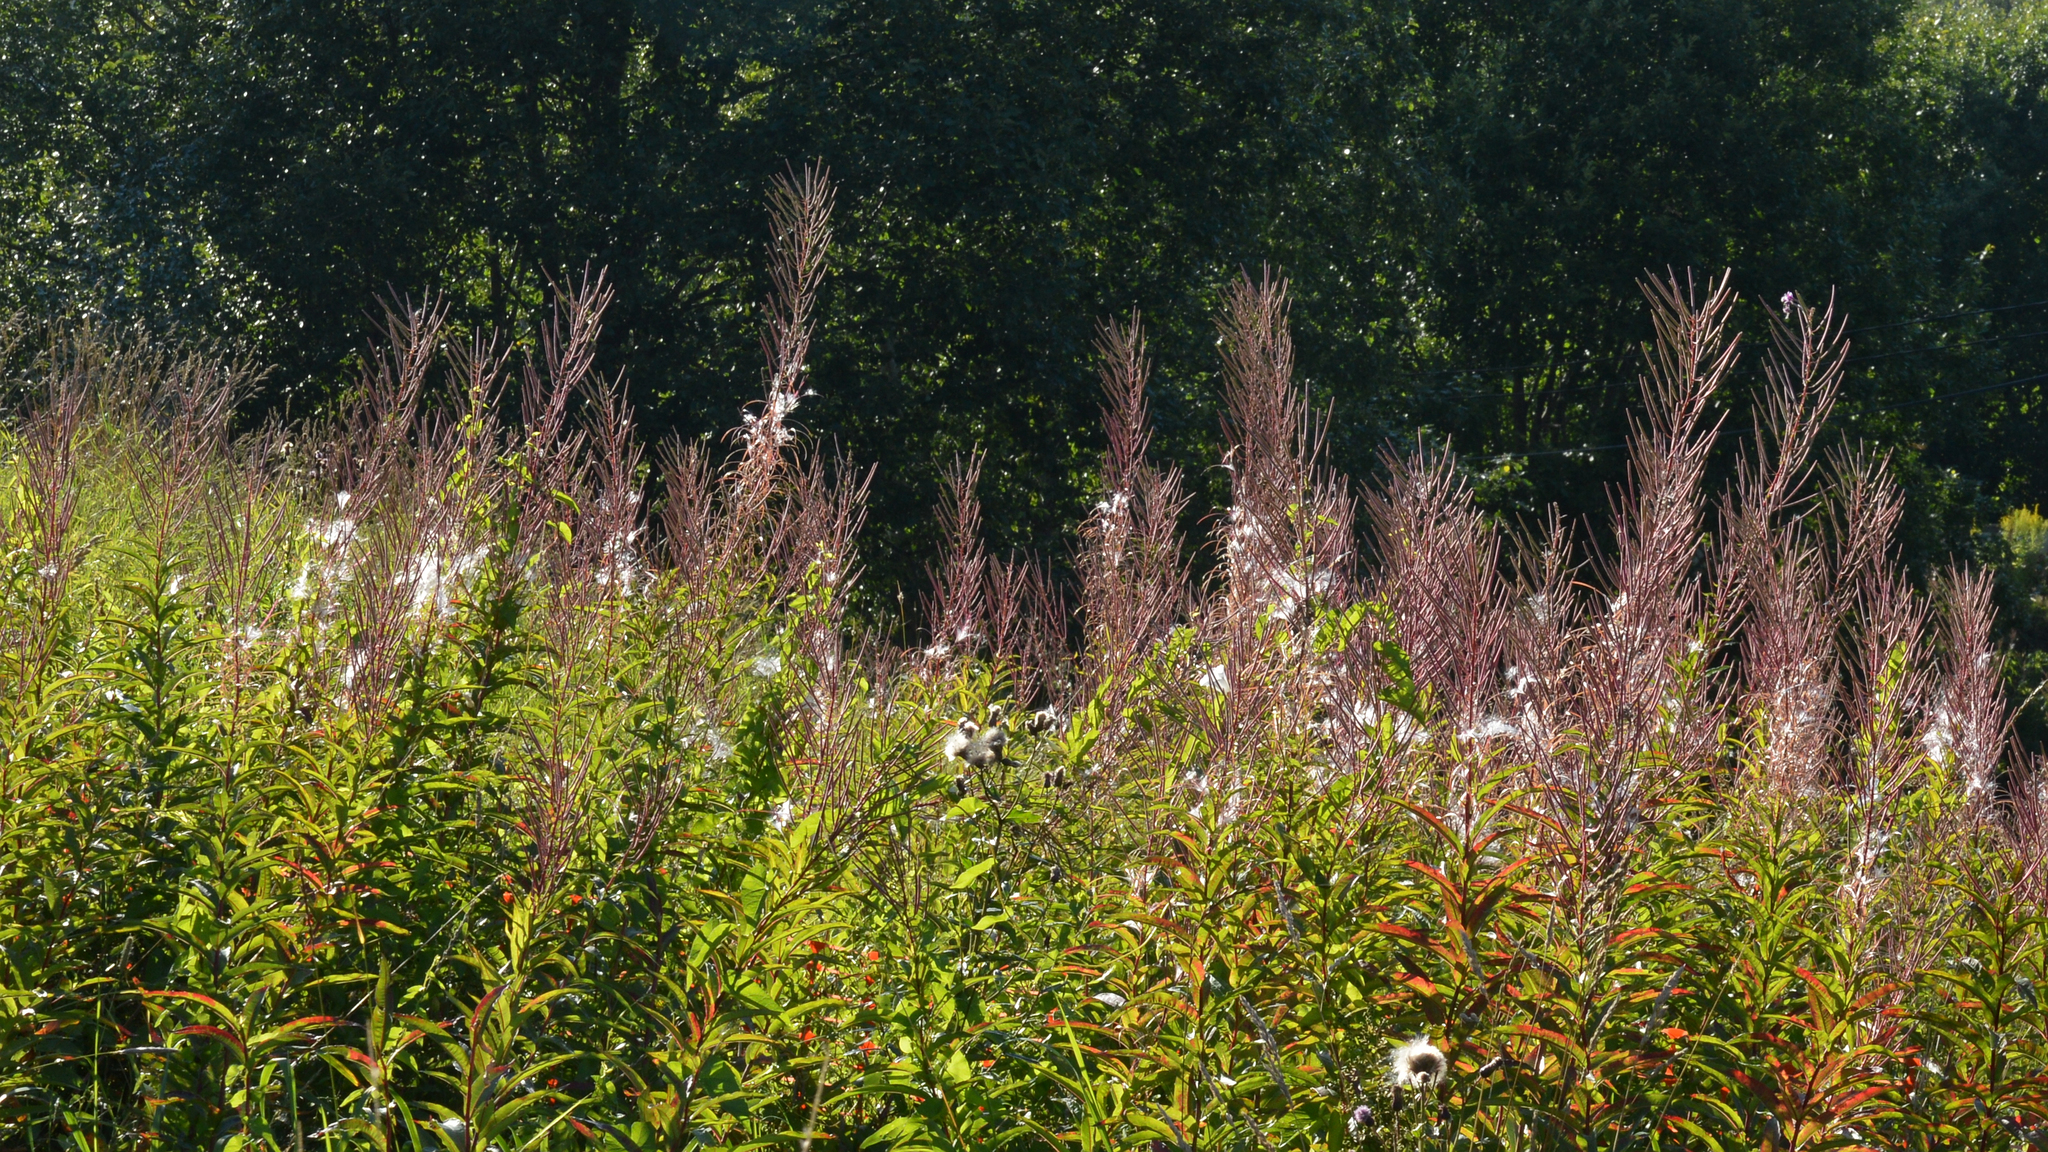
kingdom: Plantae
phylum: Tracheophyta
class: Magnoliopsida
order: Myrtales
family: Onagraceae
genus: Chamaenerion
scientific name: Chamaenerion angustifolium
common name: Fireweed
